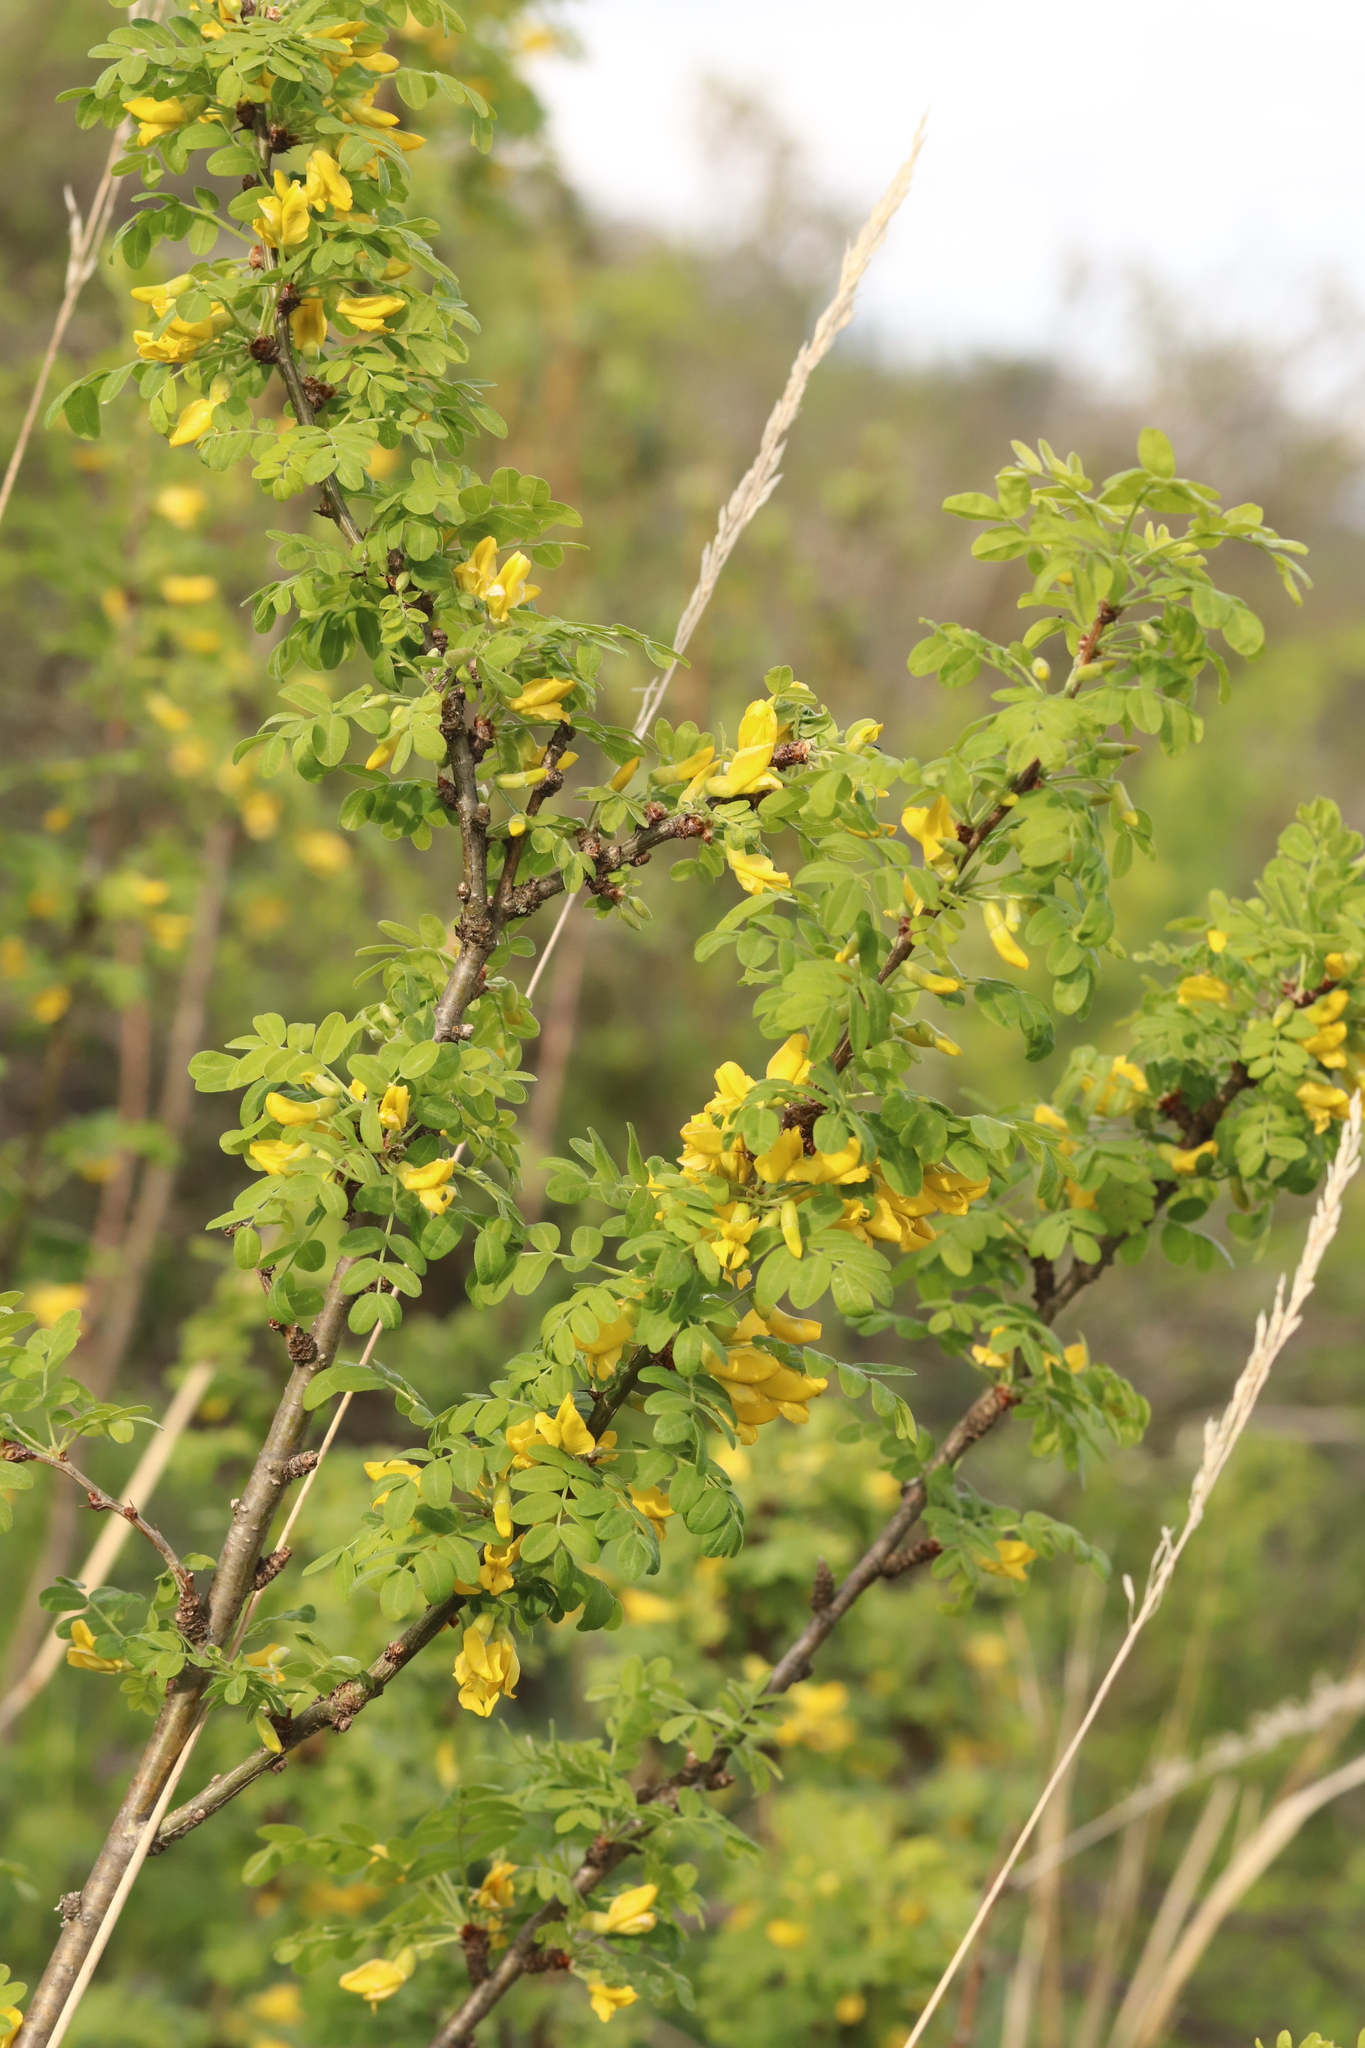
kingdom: Plantae
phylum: Tracheophyta
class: Magnoliopsida
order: Fabales
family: Fabaceae
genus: Caragana
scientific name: Caragana arborescens
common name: Siberian peashrub
